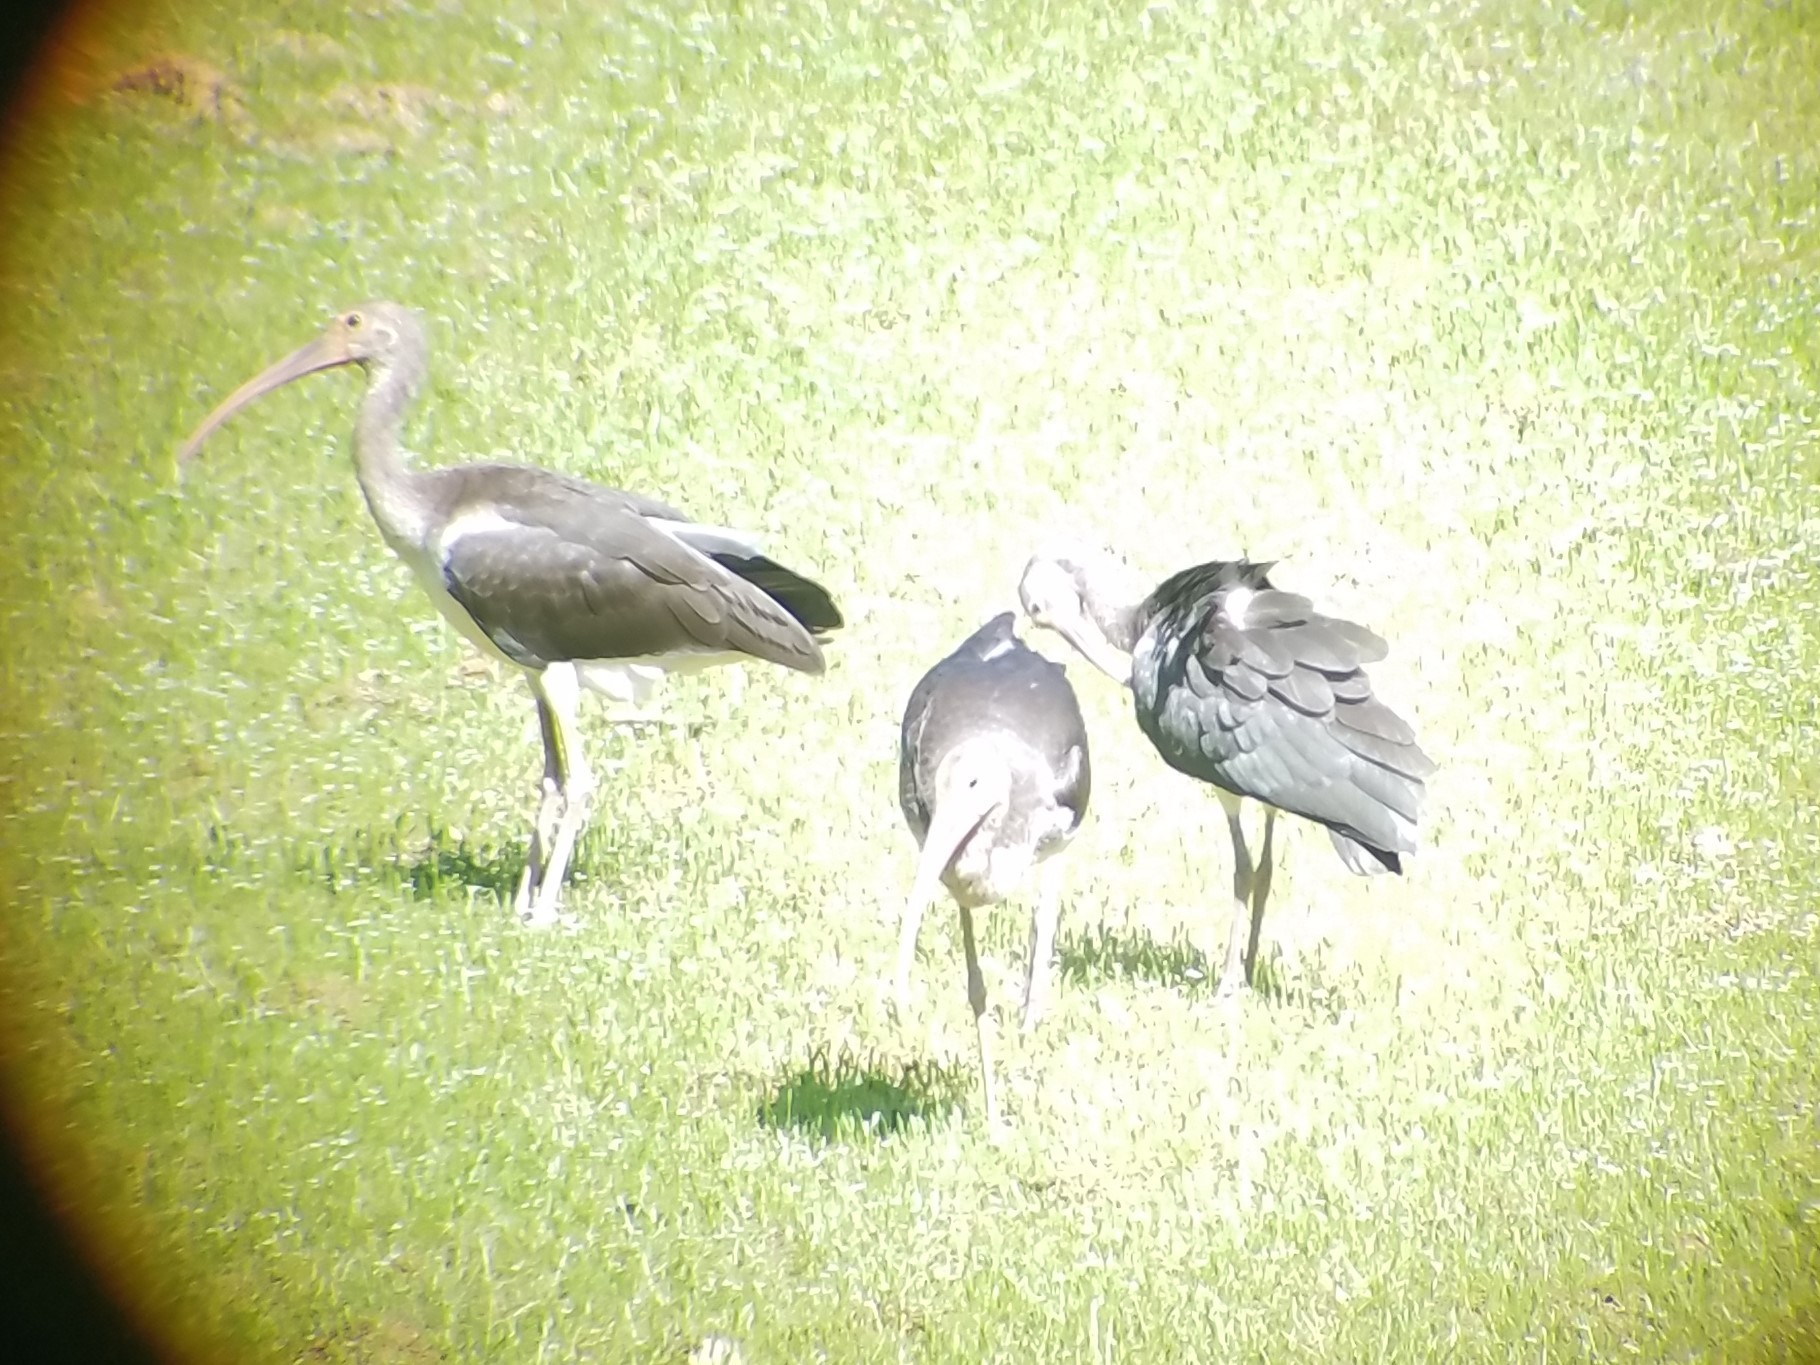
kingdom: Animalia
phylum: Chordata
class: Aves
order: Pelecaniformes
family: Threskiornithidae
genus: Eudocimus
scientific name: Eudocimus albus
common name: White ibis
